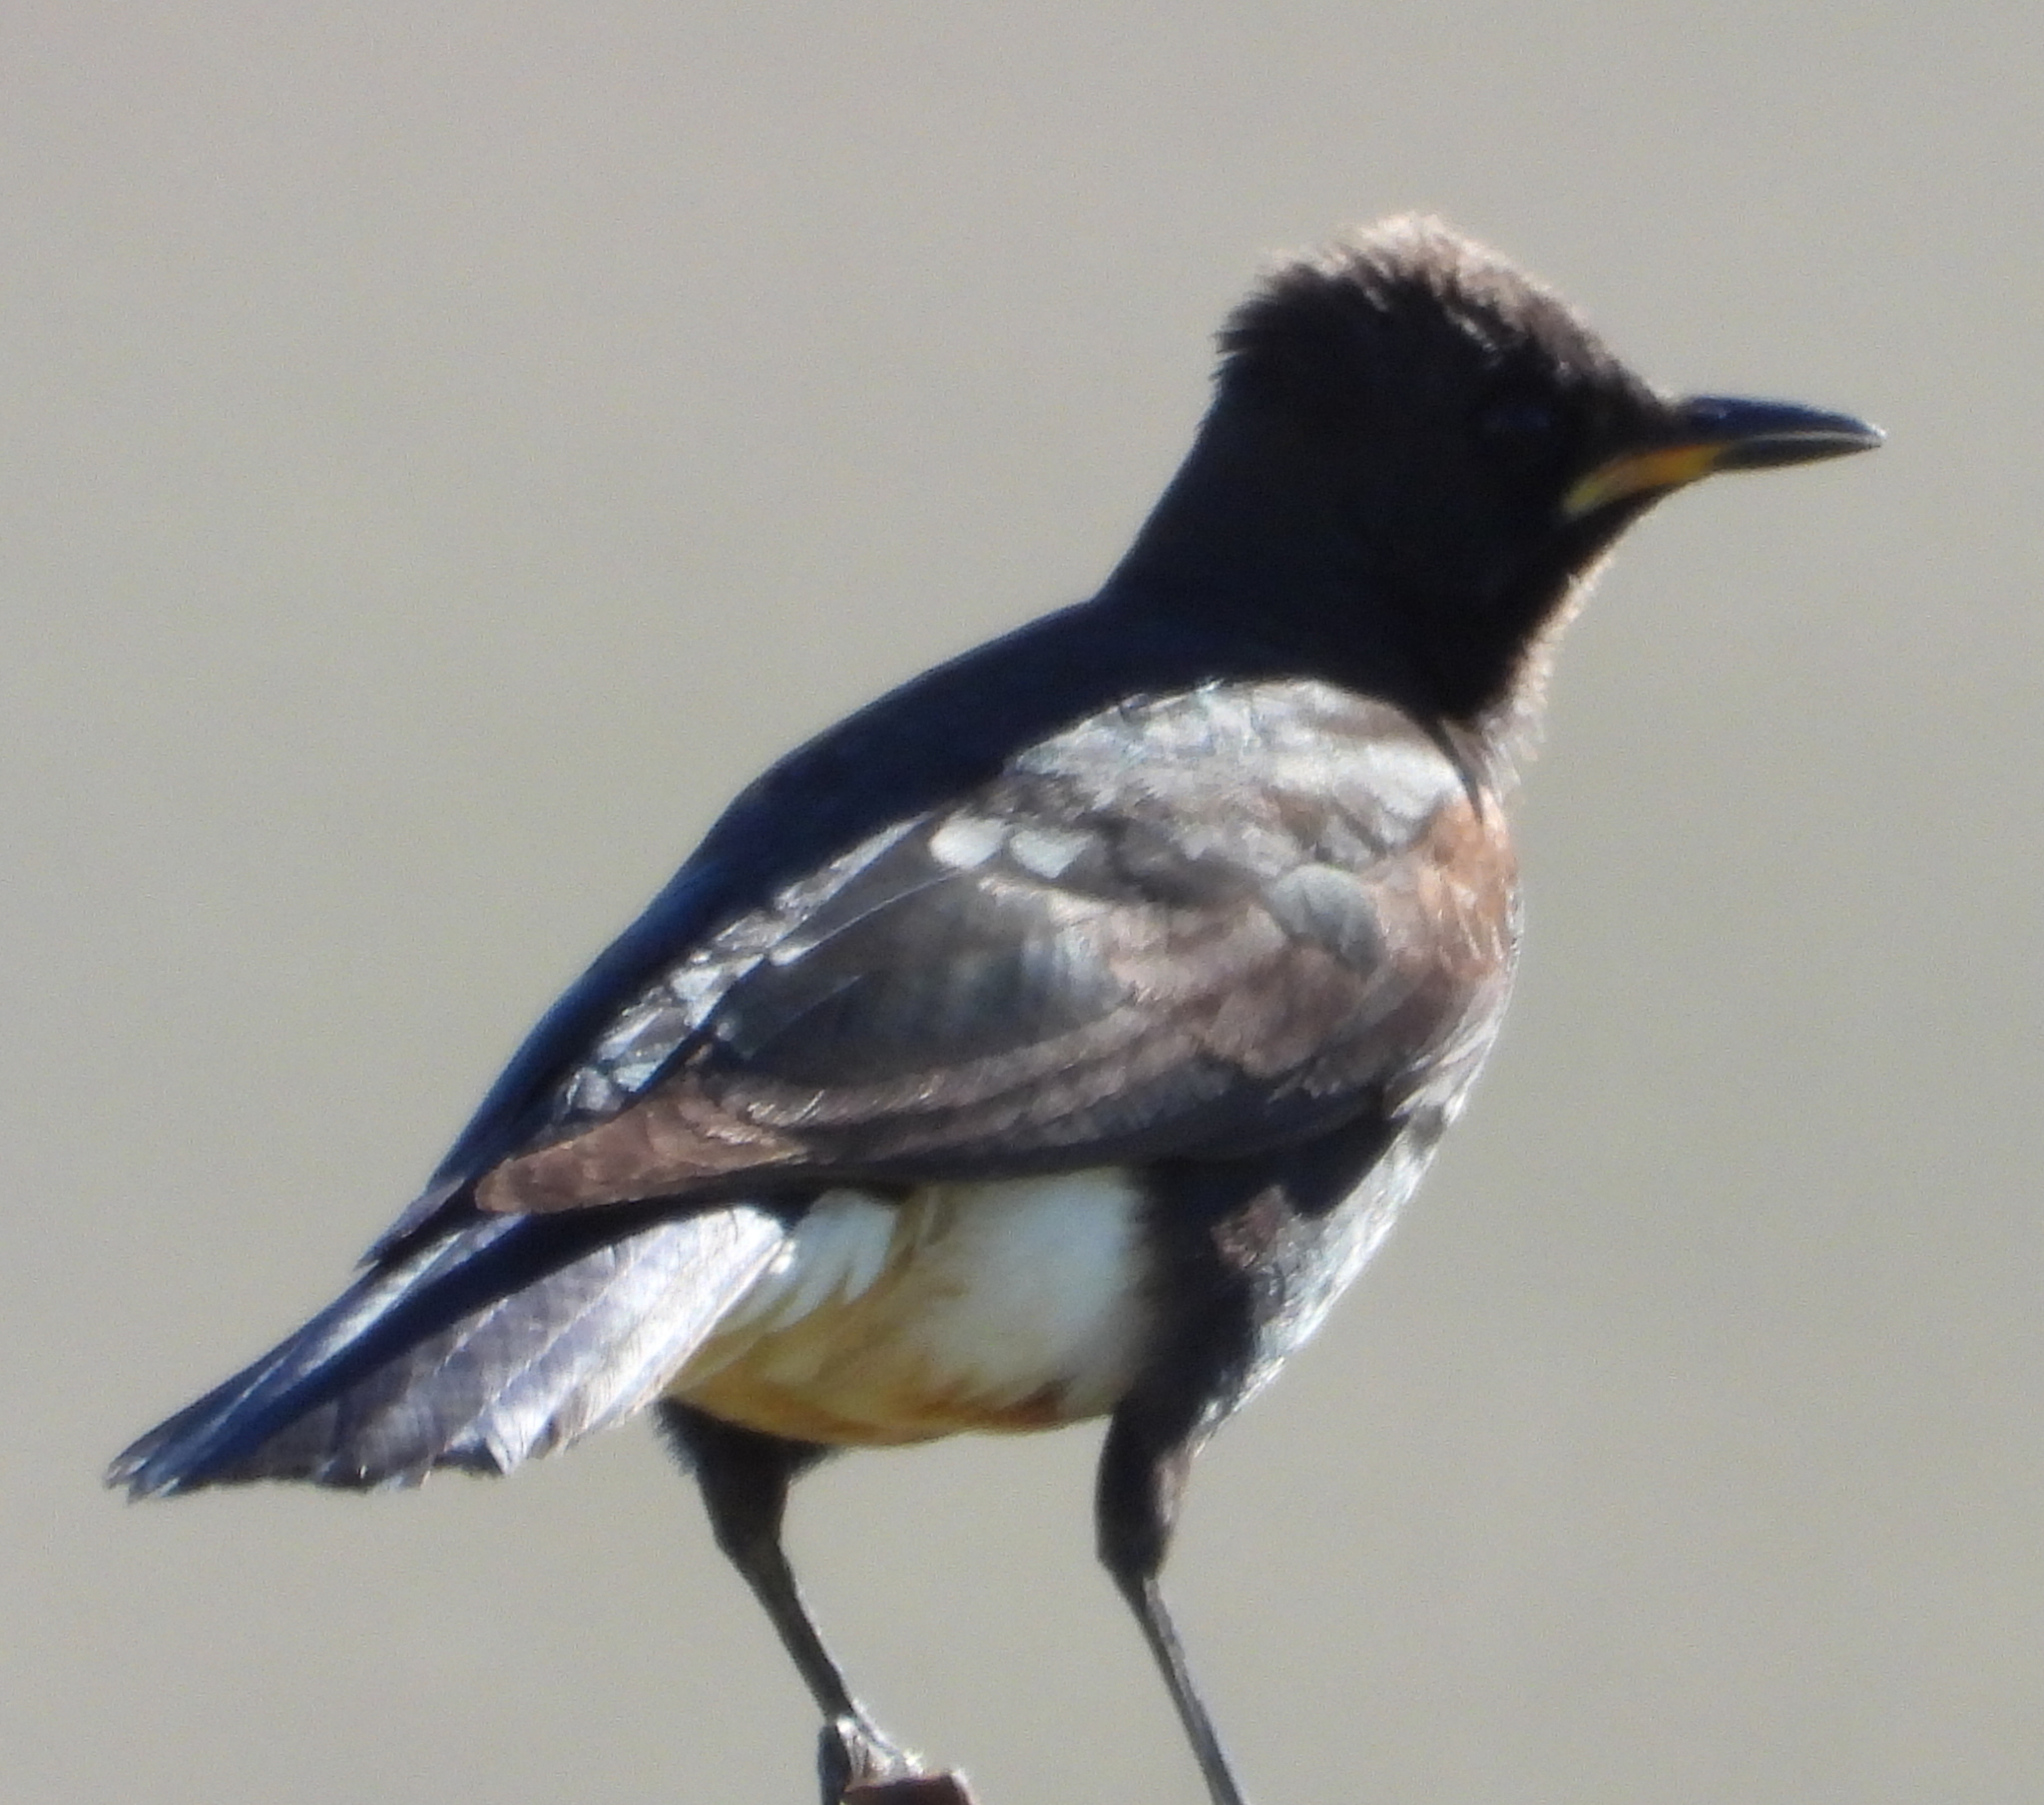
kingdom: Animalia
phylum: Chordata
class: Aves
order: Passeriformes
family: Sturnidae
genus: Lamprotornis
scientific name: Lamprotornis bicolor
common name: Pied starling
